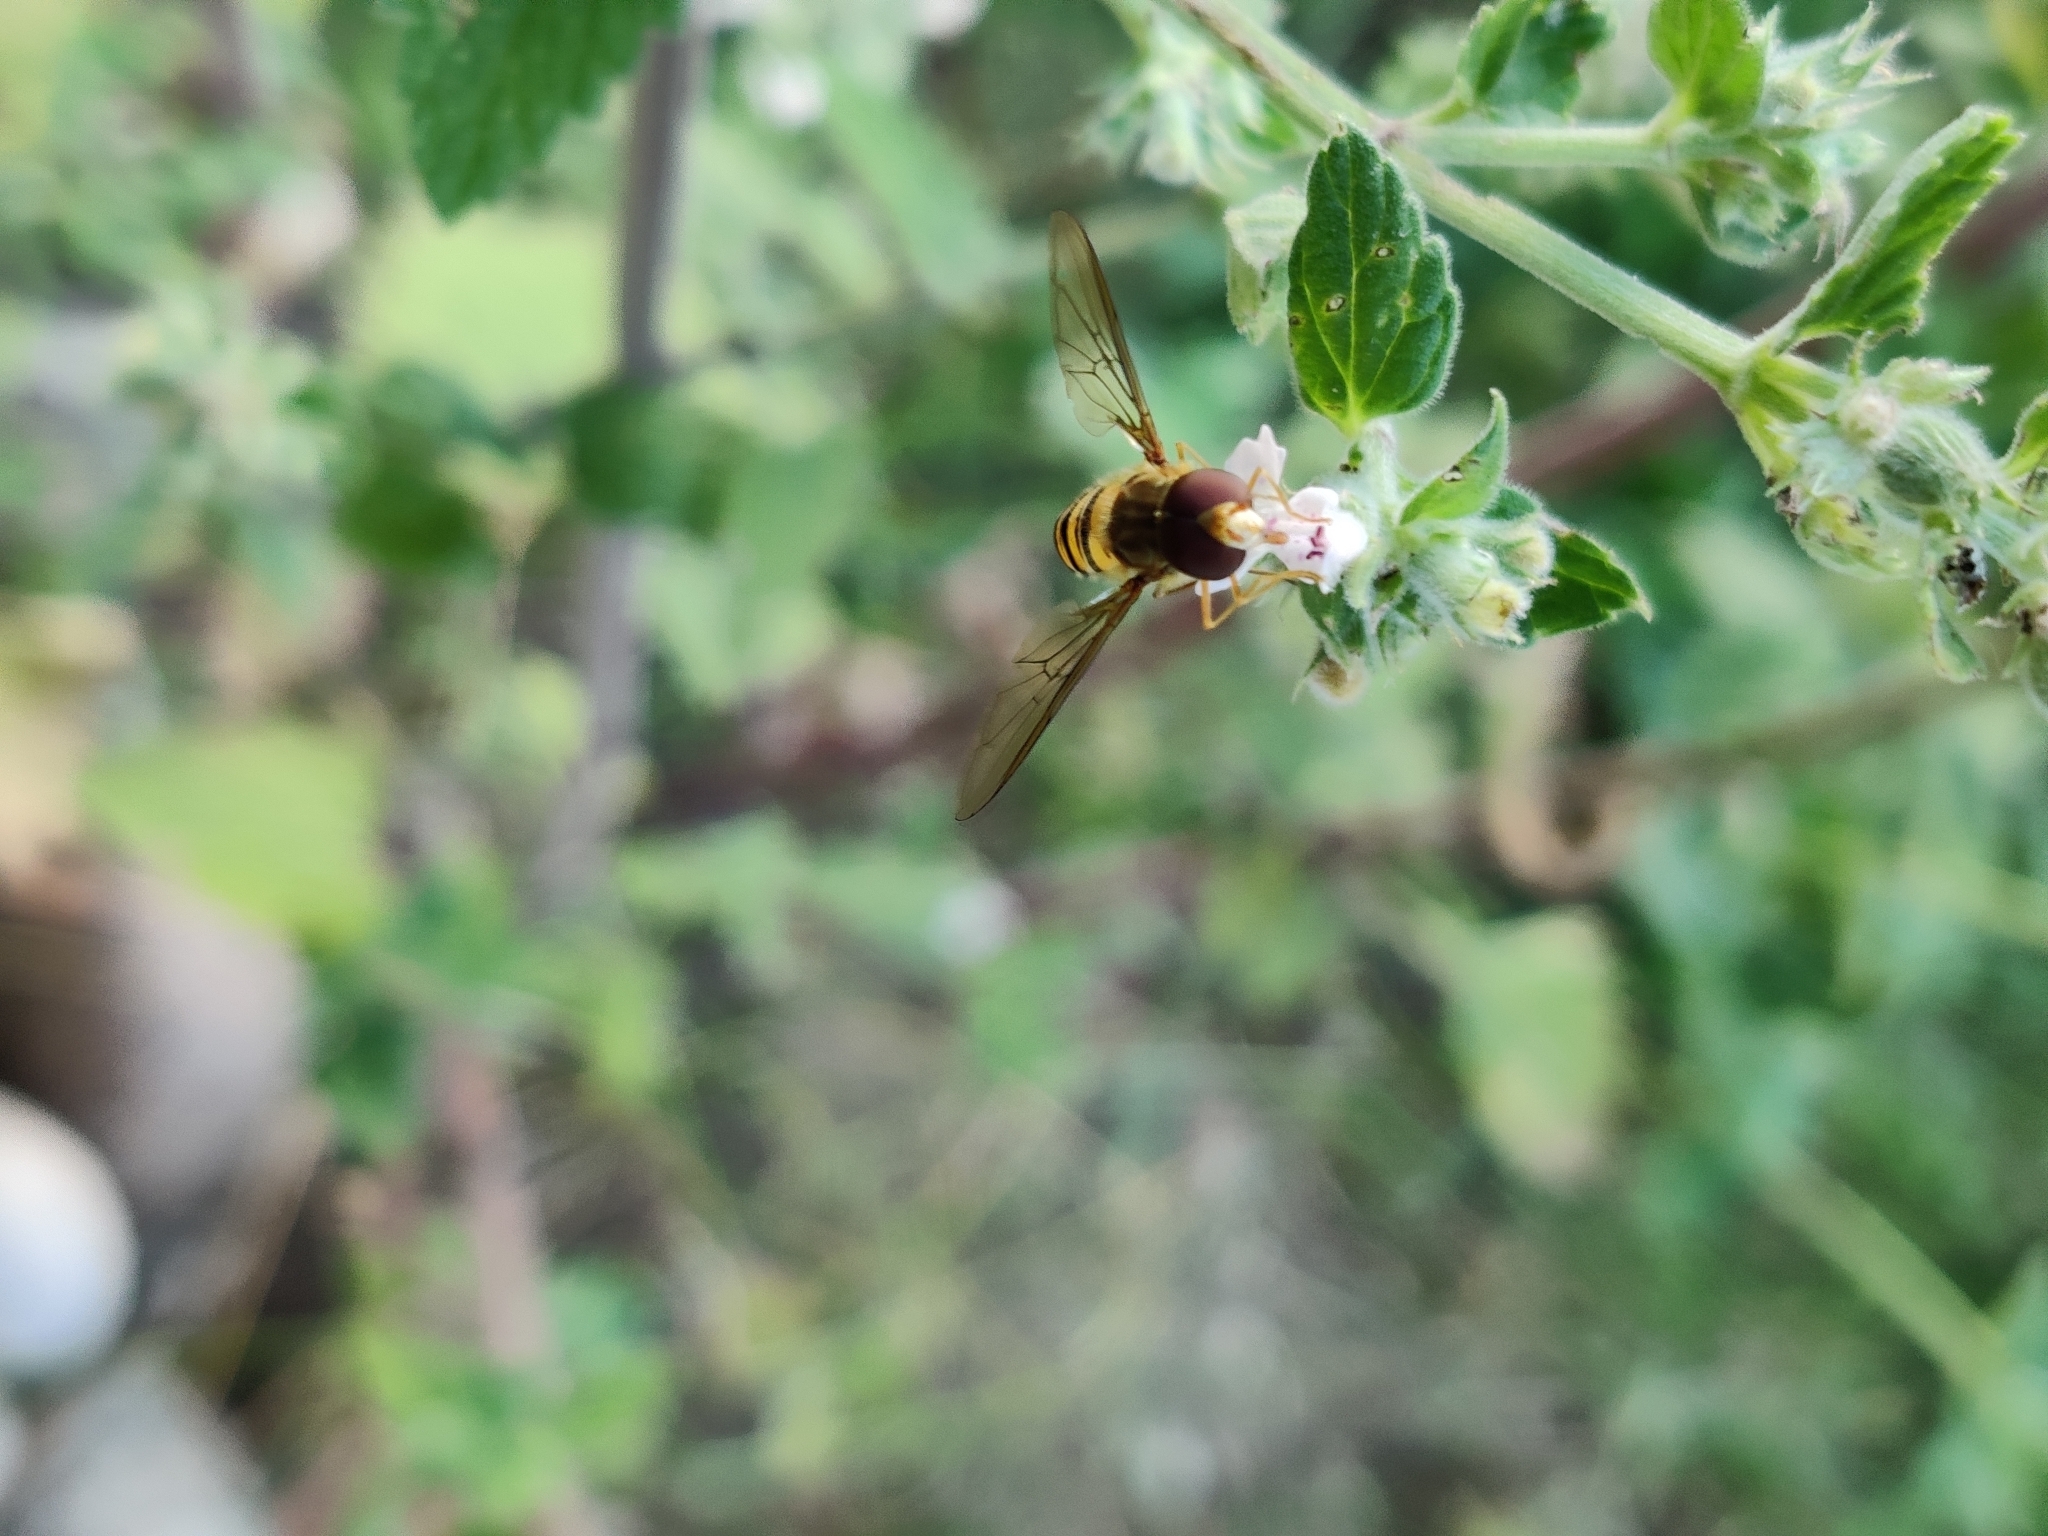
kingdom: Animalia
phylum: Arthropoda
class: Insecta
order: Diptera
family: Syrphidae
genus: Episyrphus
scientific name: Episyrphus balteatus
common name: Marmalade hoverfly
